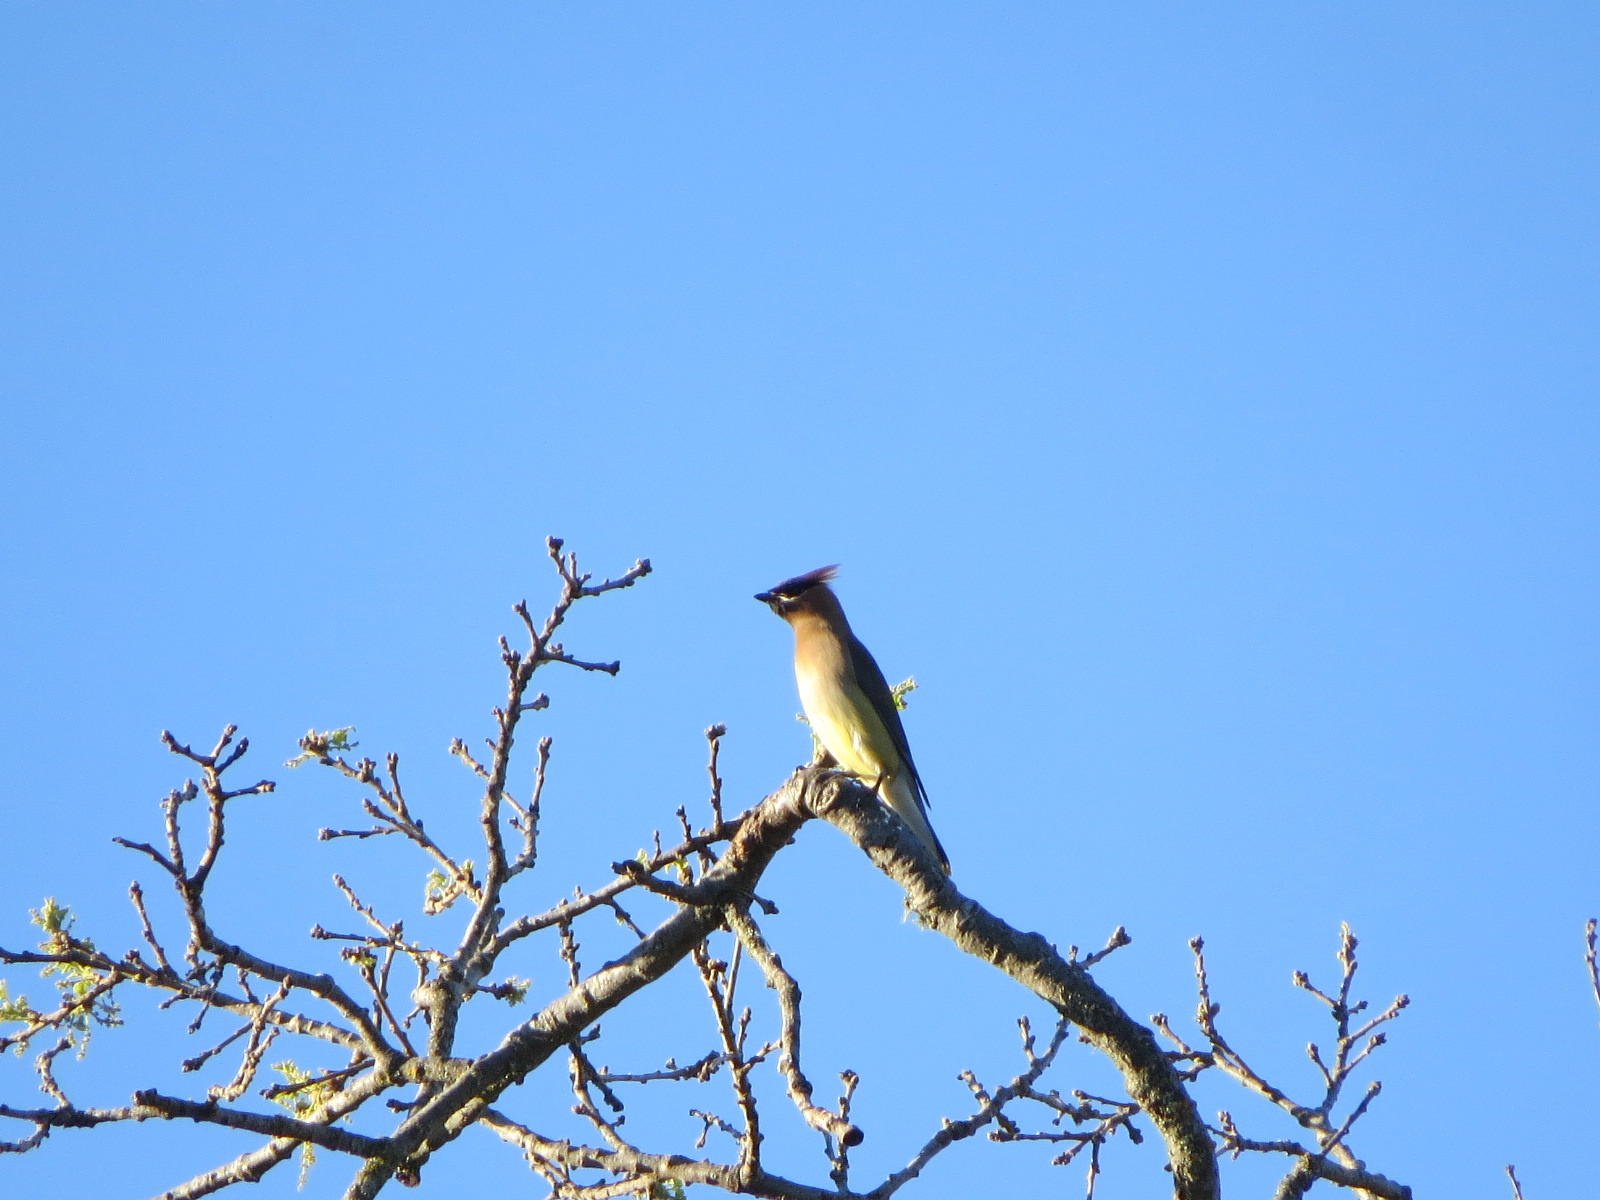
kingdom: Animalia
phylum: Chordata
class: Aves
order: Passeriformes
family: Bombycillidae
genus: Bombycilla
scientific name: Bombycilla cedrorum
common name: Cedar waxwing
